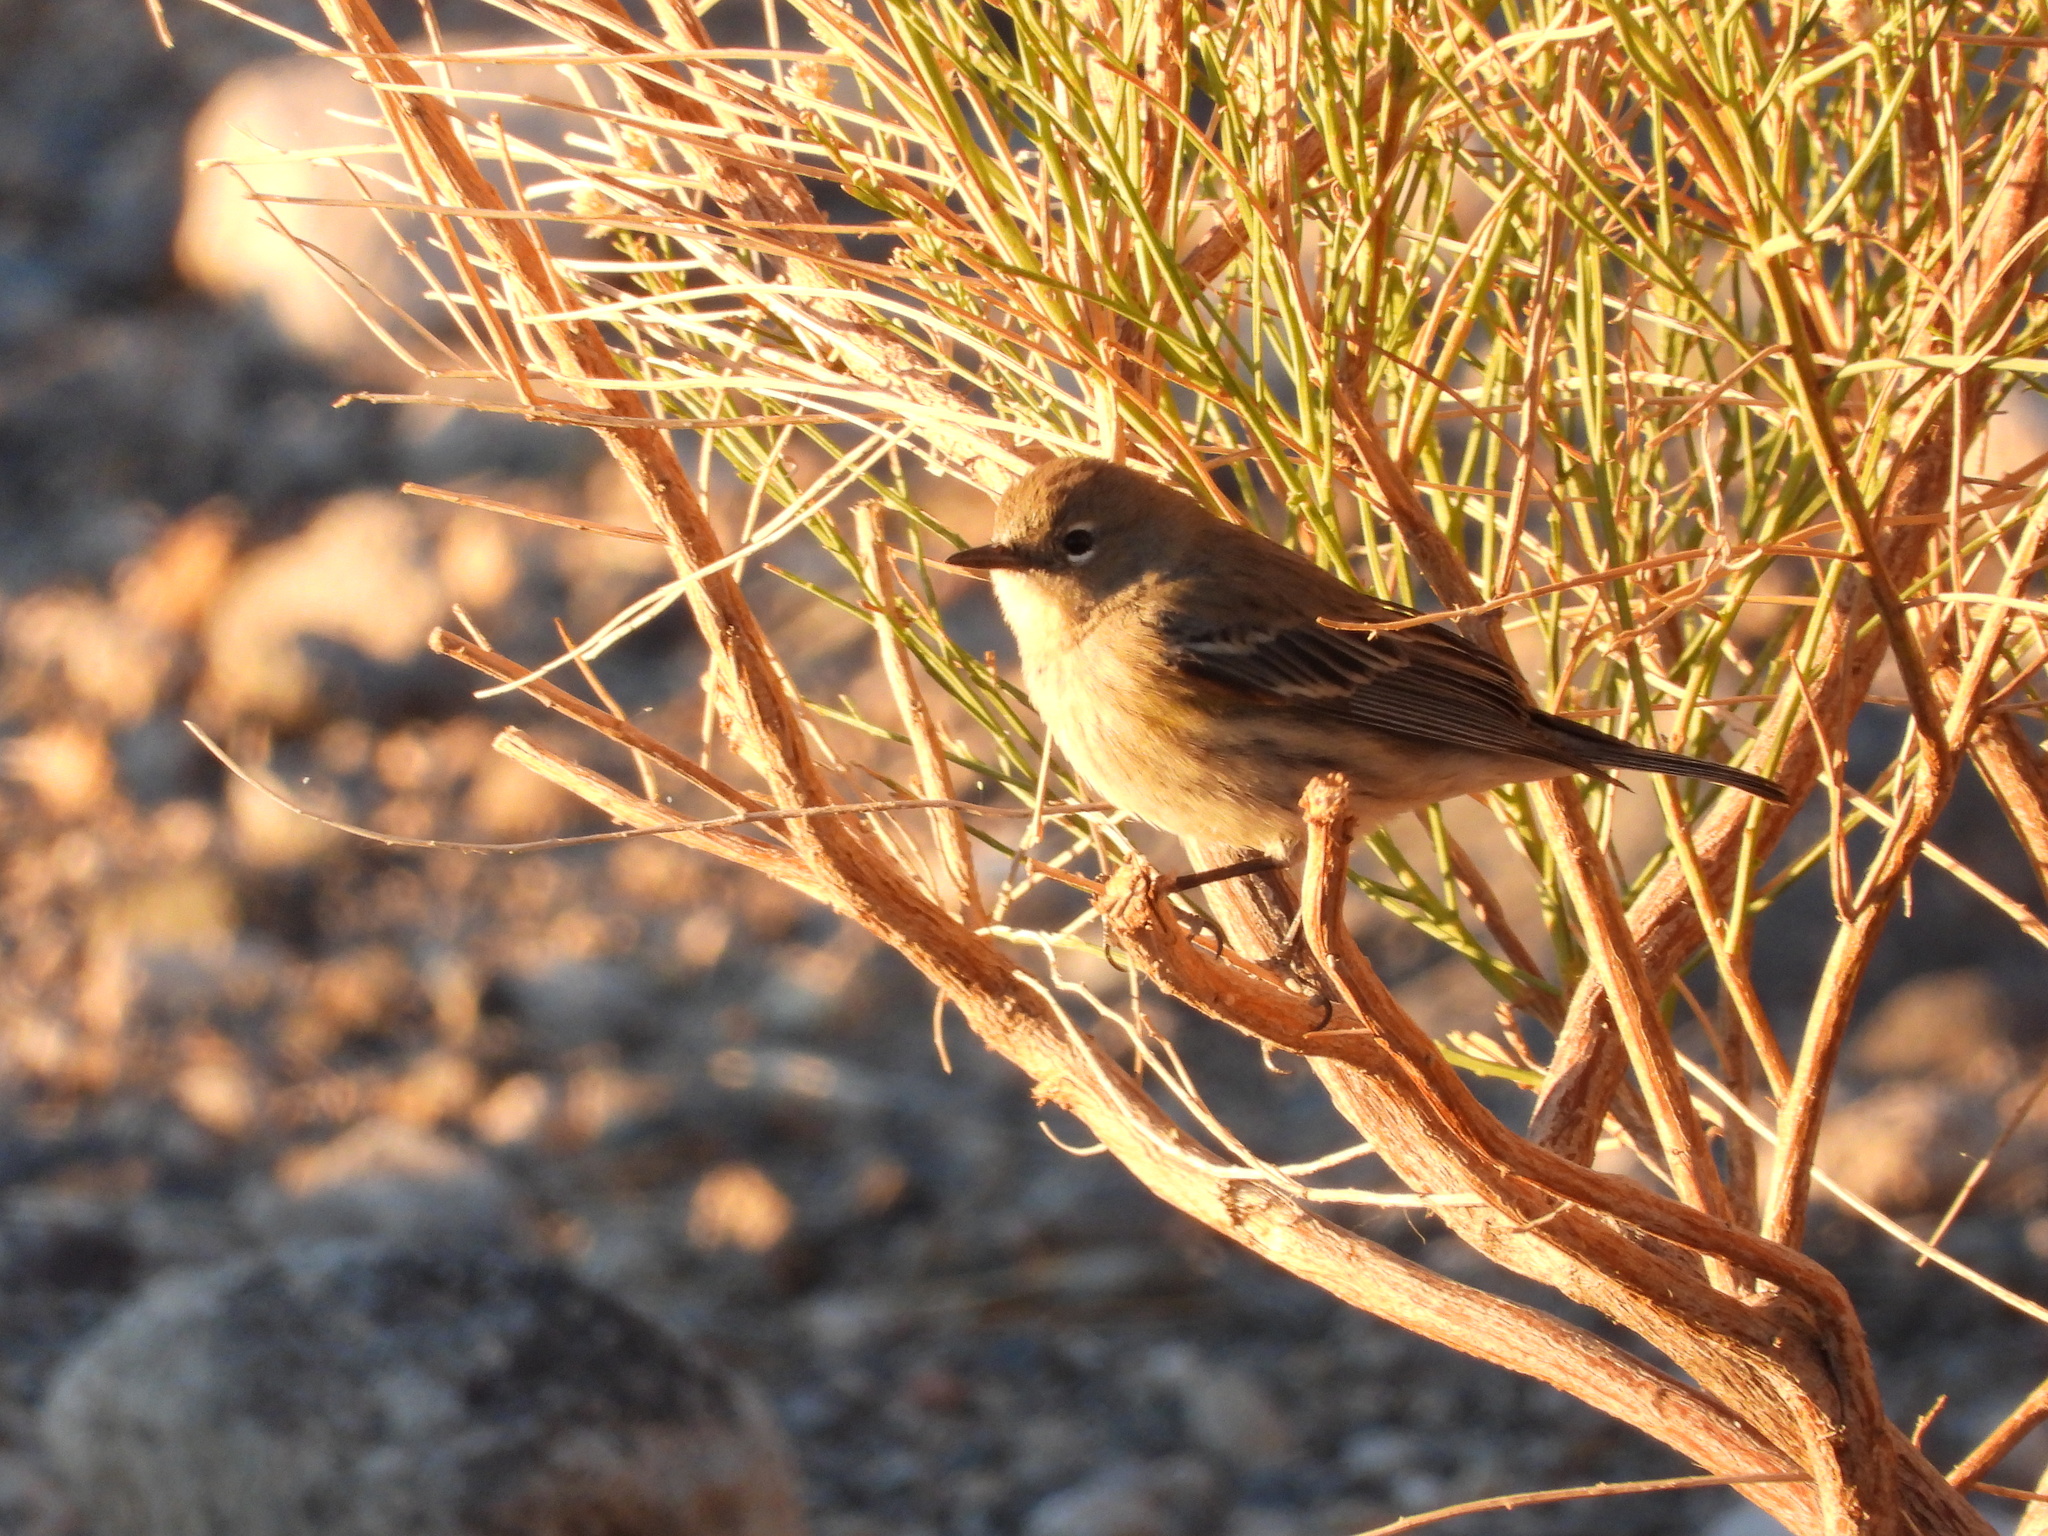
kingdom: Animalia
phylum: Chordata
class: Aves
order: Passeriformes
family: Parulidae
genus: Setophaga
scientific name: Setophaga coronata
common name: Myrtle warbler
